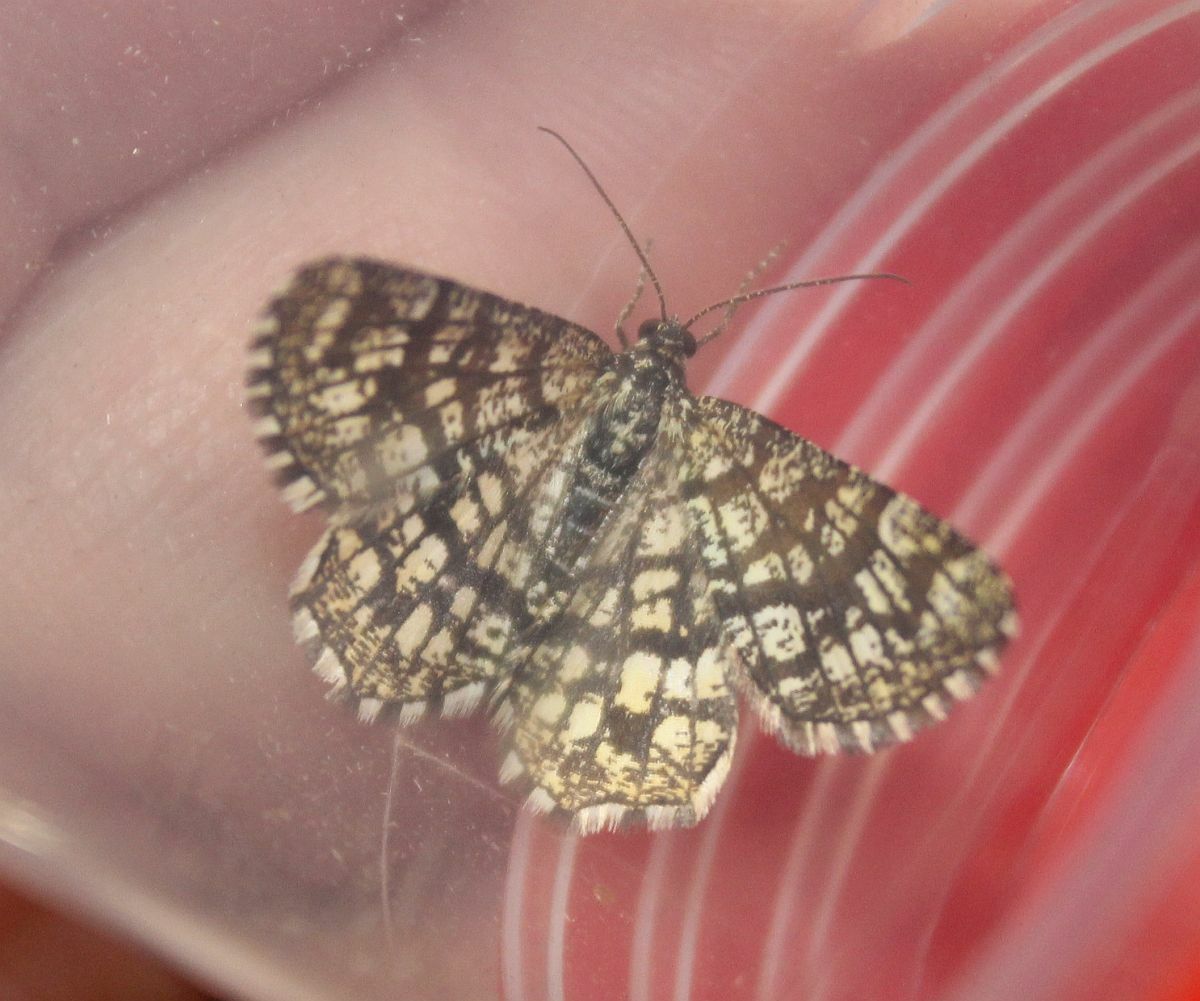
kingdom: Animalia
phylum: Arthropoda
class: Insecta
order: Lepidoptera
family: Geometridae
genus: Chiasmia
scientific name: Chiasmia clathrata
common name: Latticed heath
